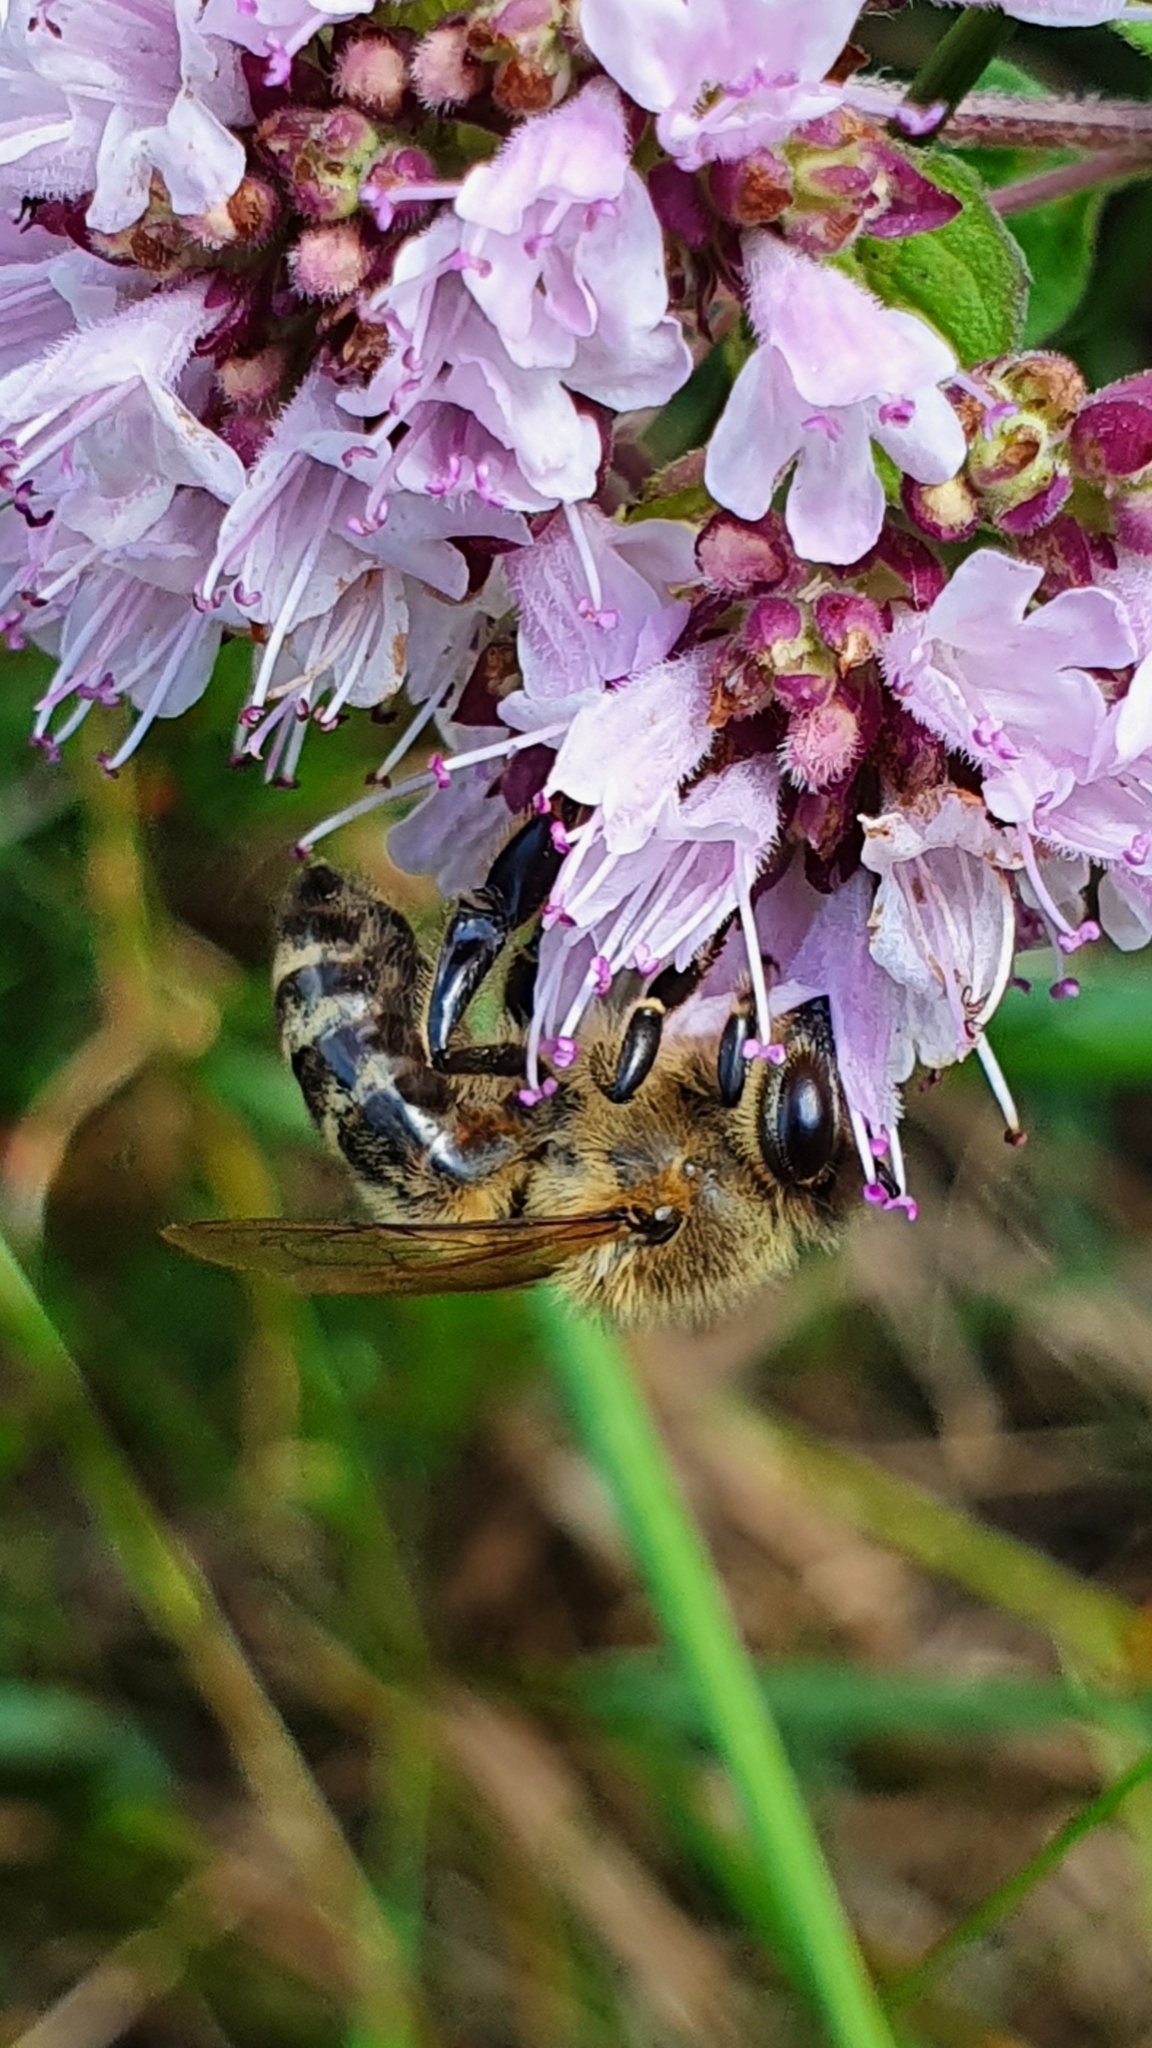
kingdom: Animalia
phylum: Arthropoda
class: Insecta
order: Hymenoptera
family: Apidae
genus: Apis
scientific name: Apis mellifera
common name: Honey bee
